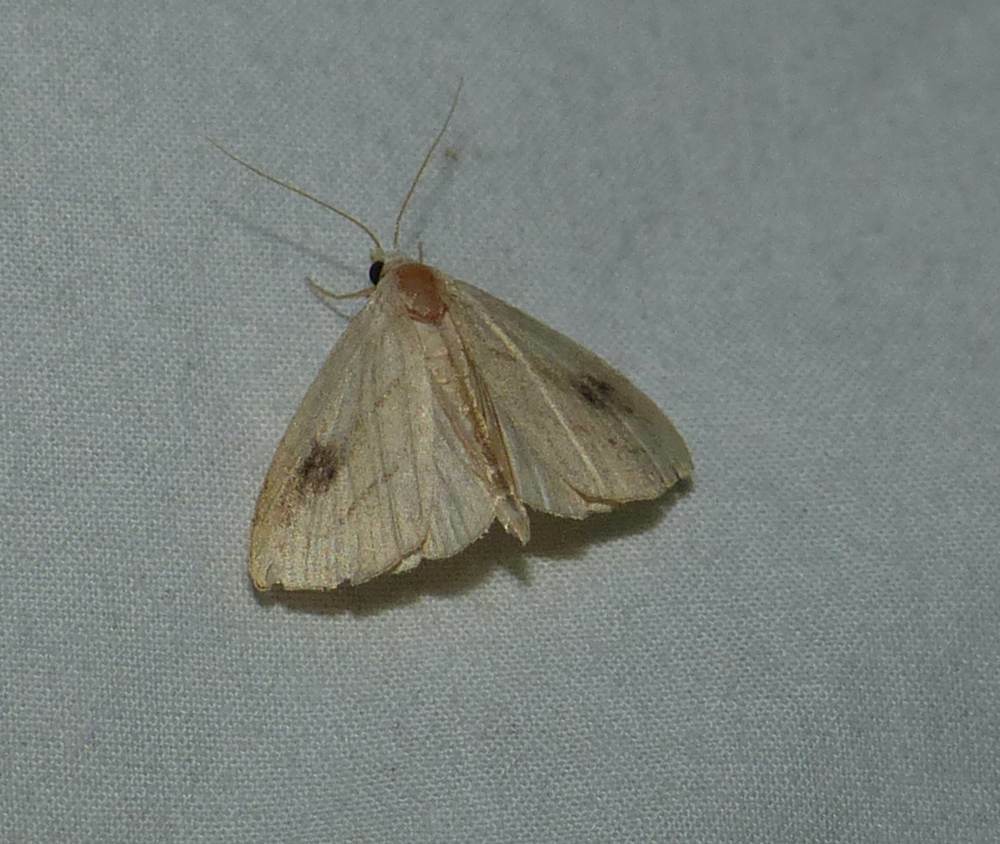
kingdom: Animalia
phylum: Arthropoda
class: Insecta
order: Lepidoptera
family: Erebidae
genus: Rivula
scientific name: Rivula propinqualis
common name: Spotted grass moth
